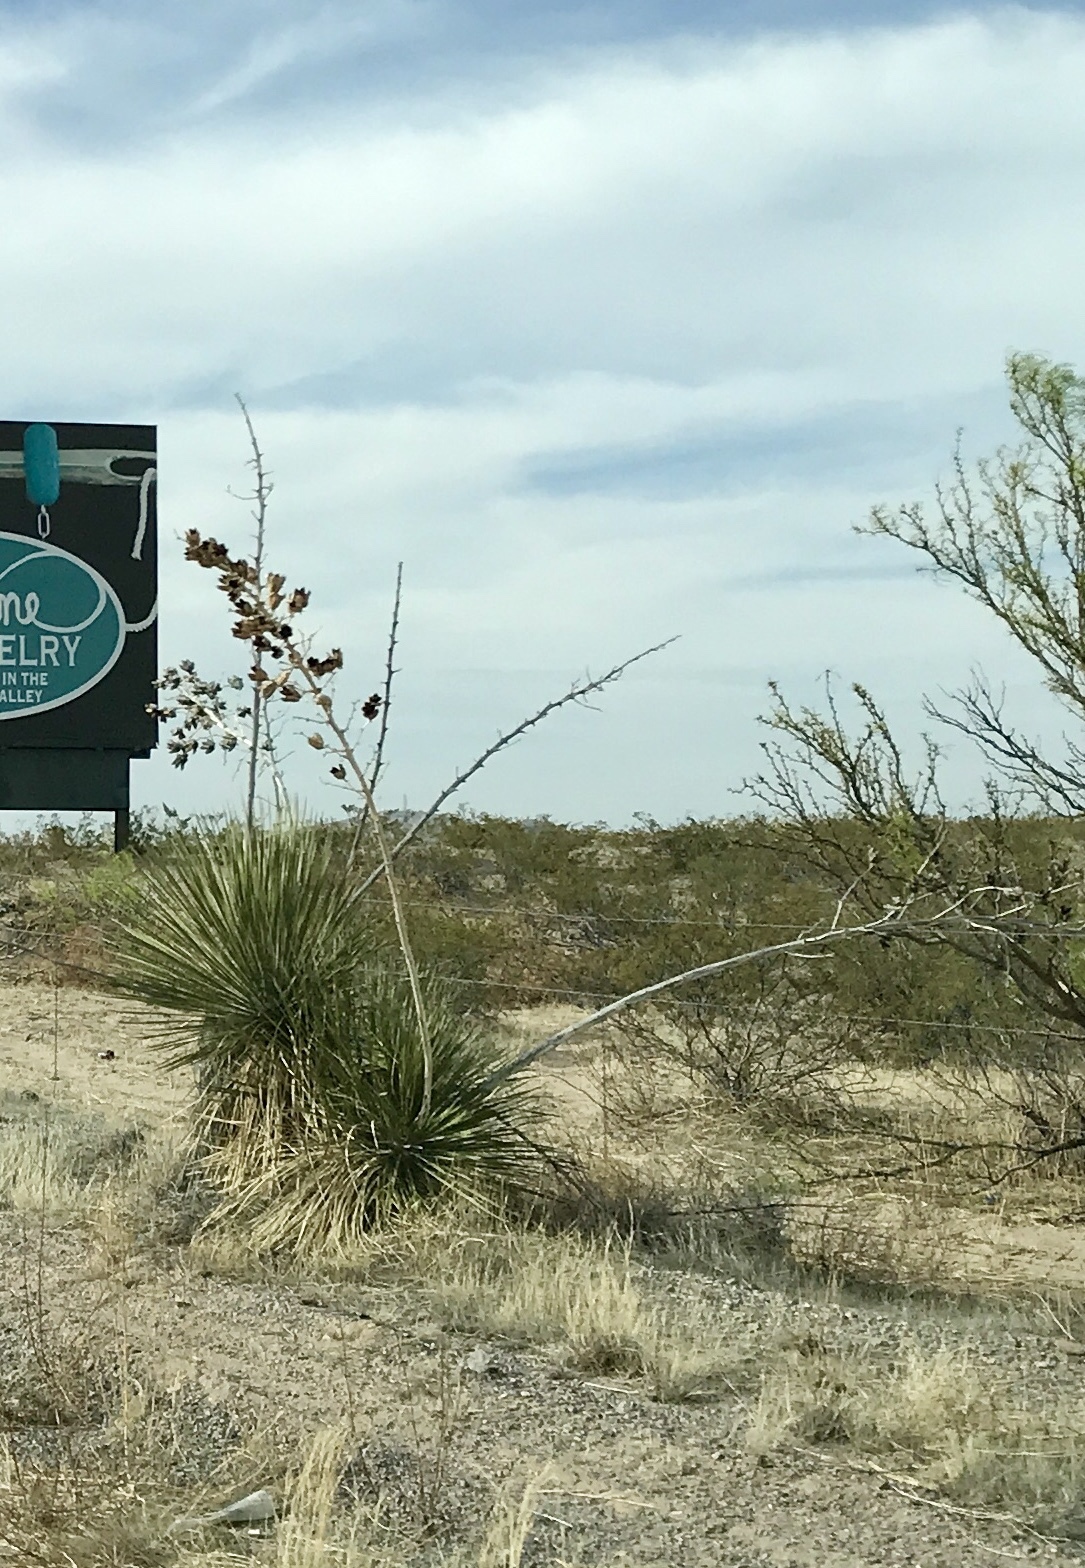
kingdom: Plantae
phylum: Tracheophyta
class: Liliopsida
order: Asparagales
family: Asparagaceae
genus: Yucca
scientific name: Yucca elata
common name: Palmella
